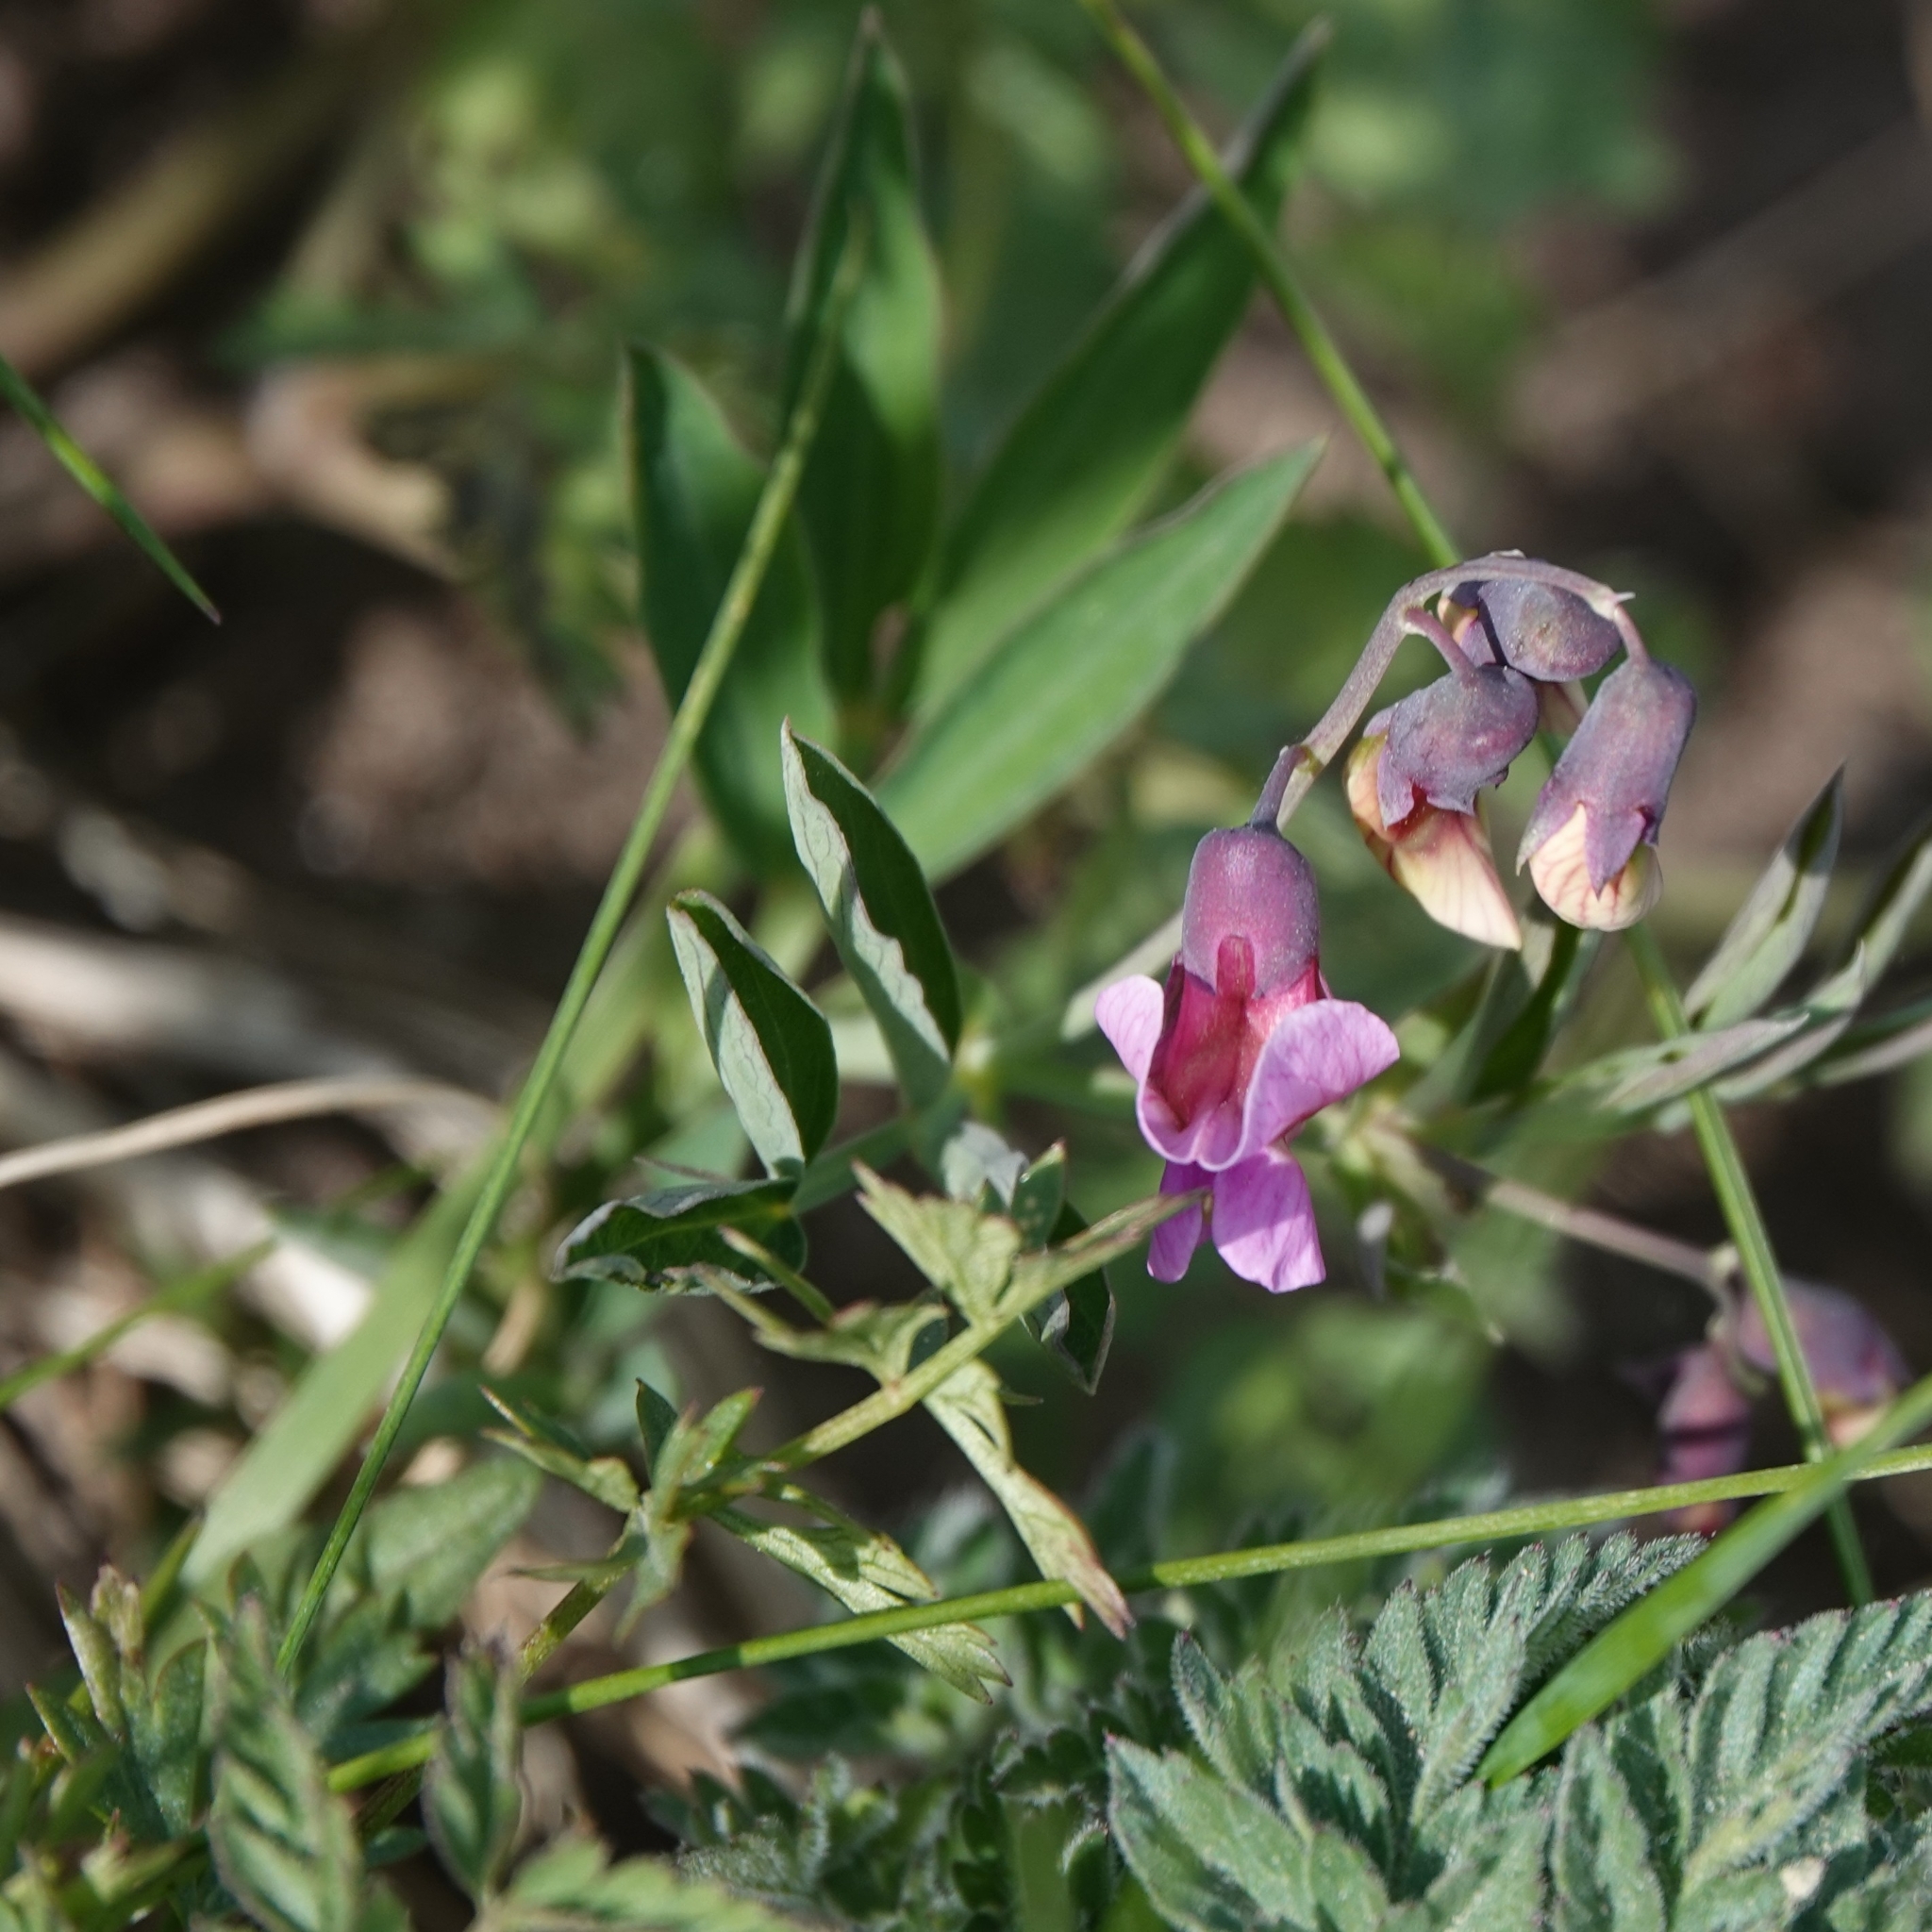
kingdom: Plantae
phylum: Tracheophyta
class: Magnoliopsida
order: Fabales
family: Fabaceae
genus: Lathyrus
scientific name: Lathyrus linifolius
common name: Bitter-vetch
